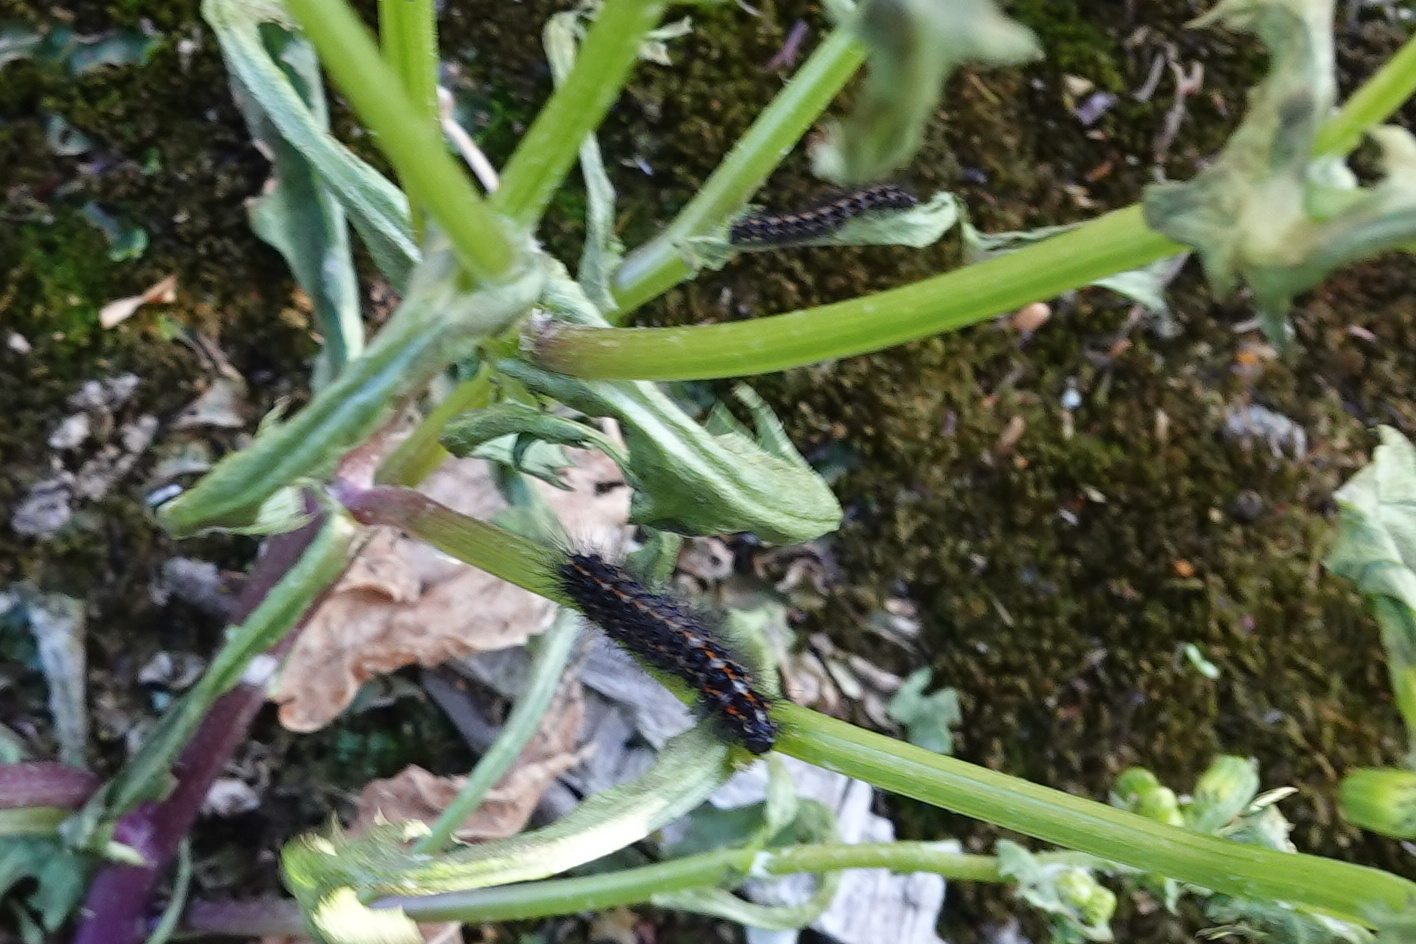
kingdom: Animalia
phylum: Arthropoda
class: Insecta
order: Lepidoptera
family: Erebidae
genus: Nyctemera
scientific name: Nyctemera annulatum
